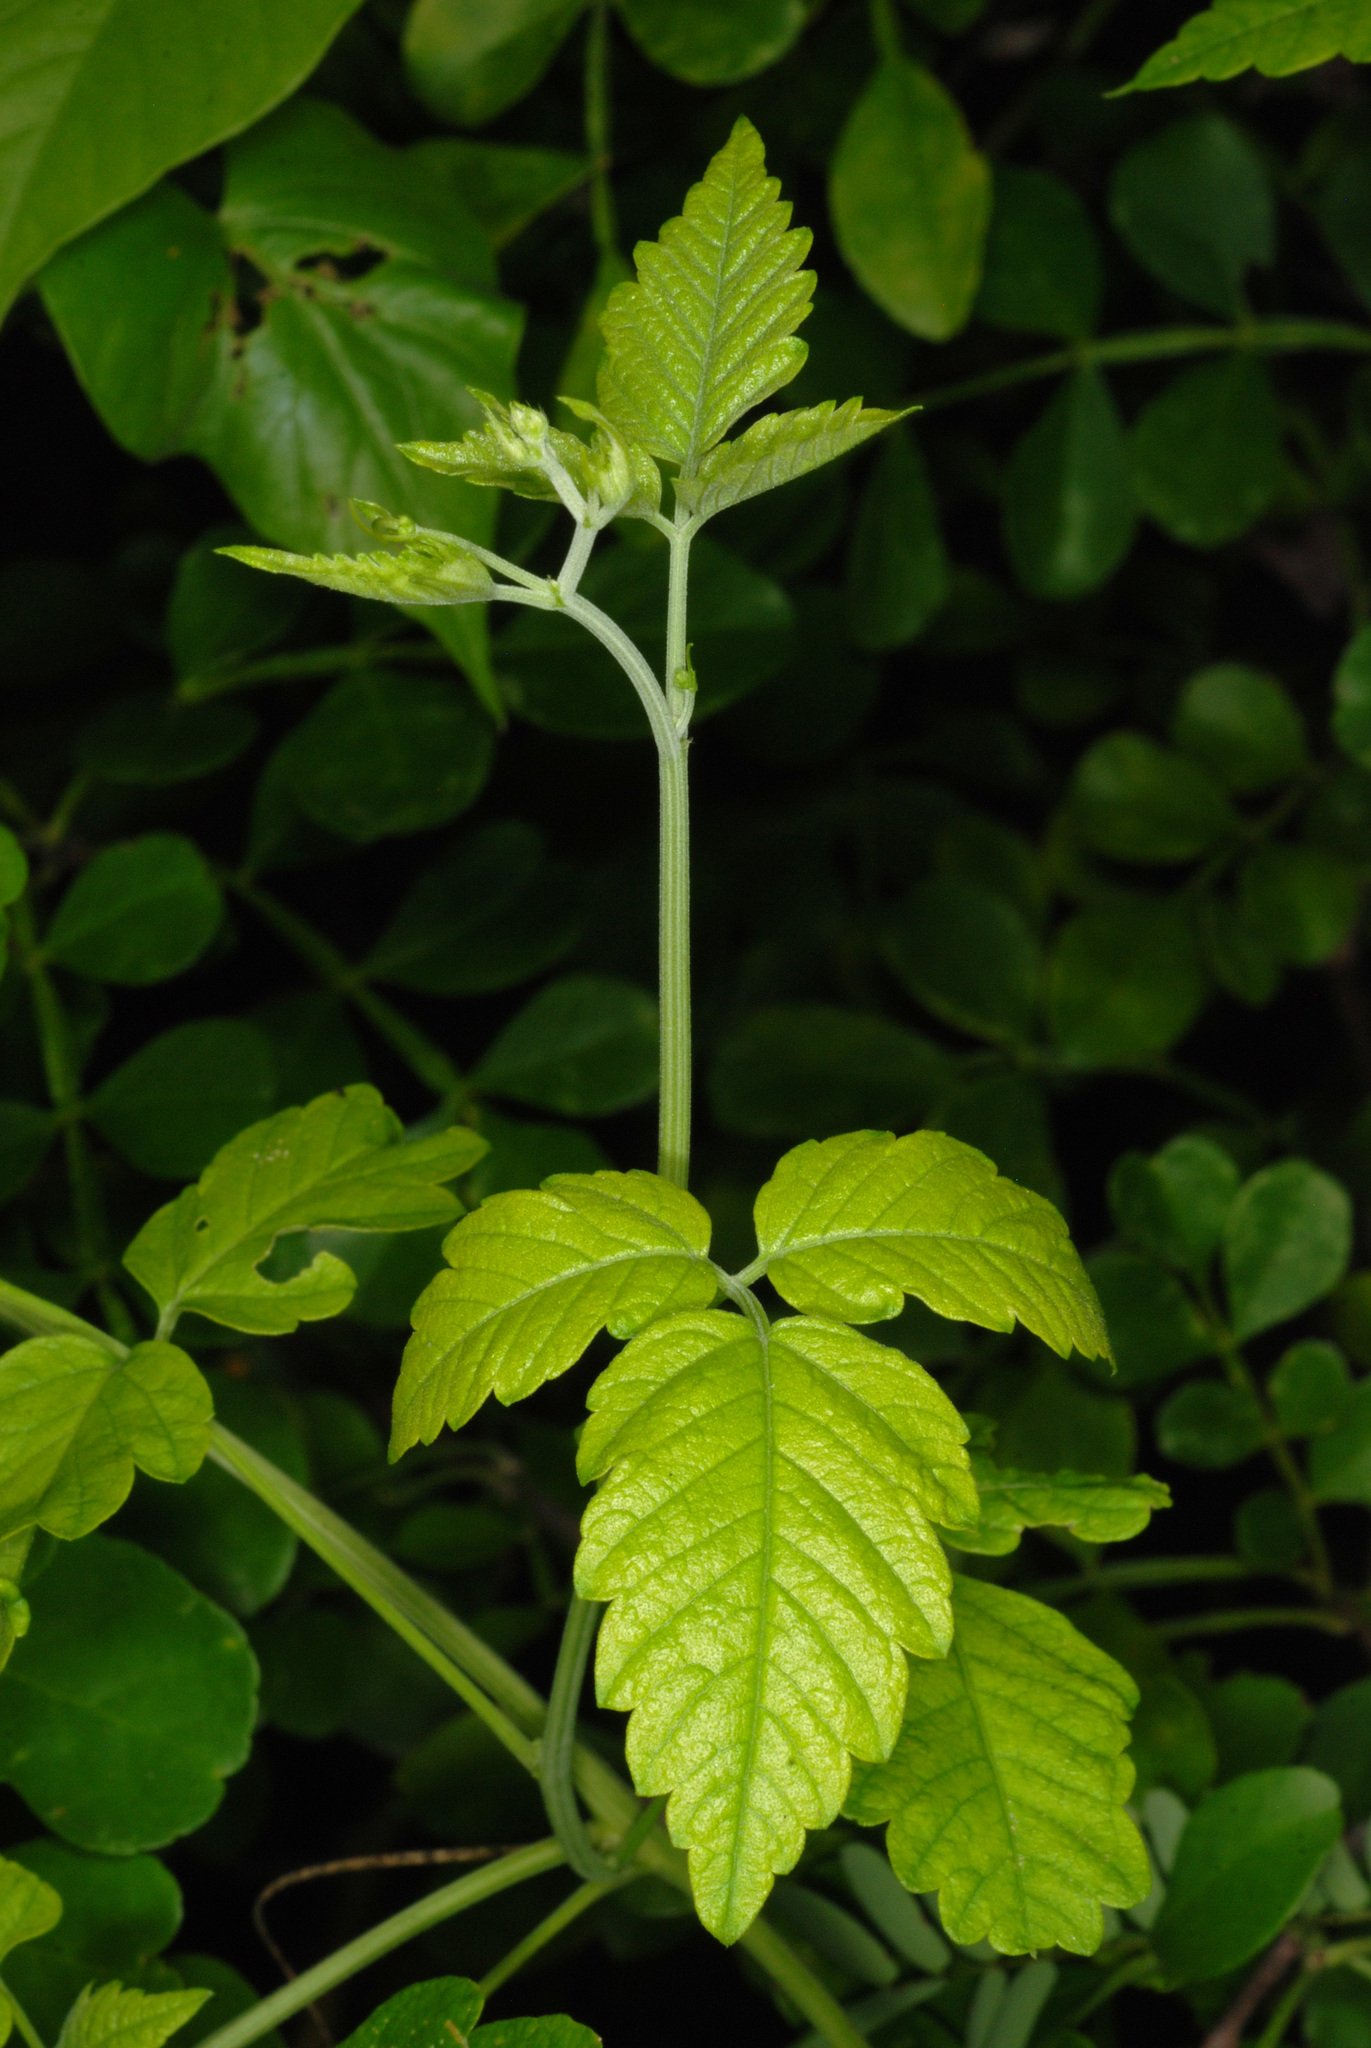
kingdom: Plantae
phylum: Tracheophyta
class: Magnoliopsida
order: Sapindales
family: Sapindaceae
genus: Cardiospermum
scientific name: Cardiospermum corindum
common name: Faux persil
